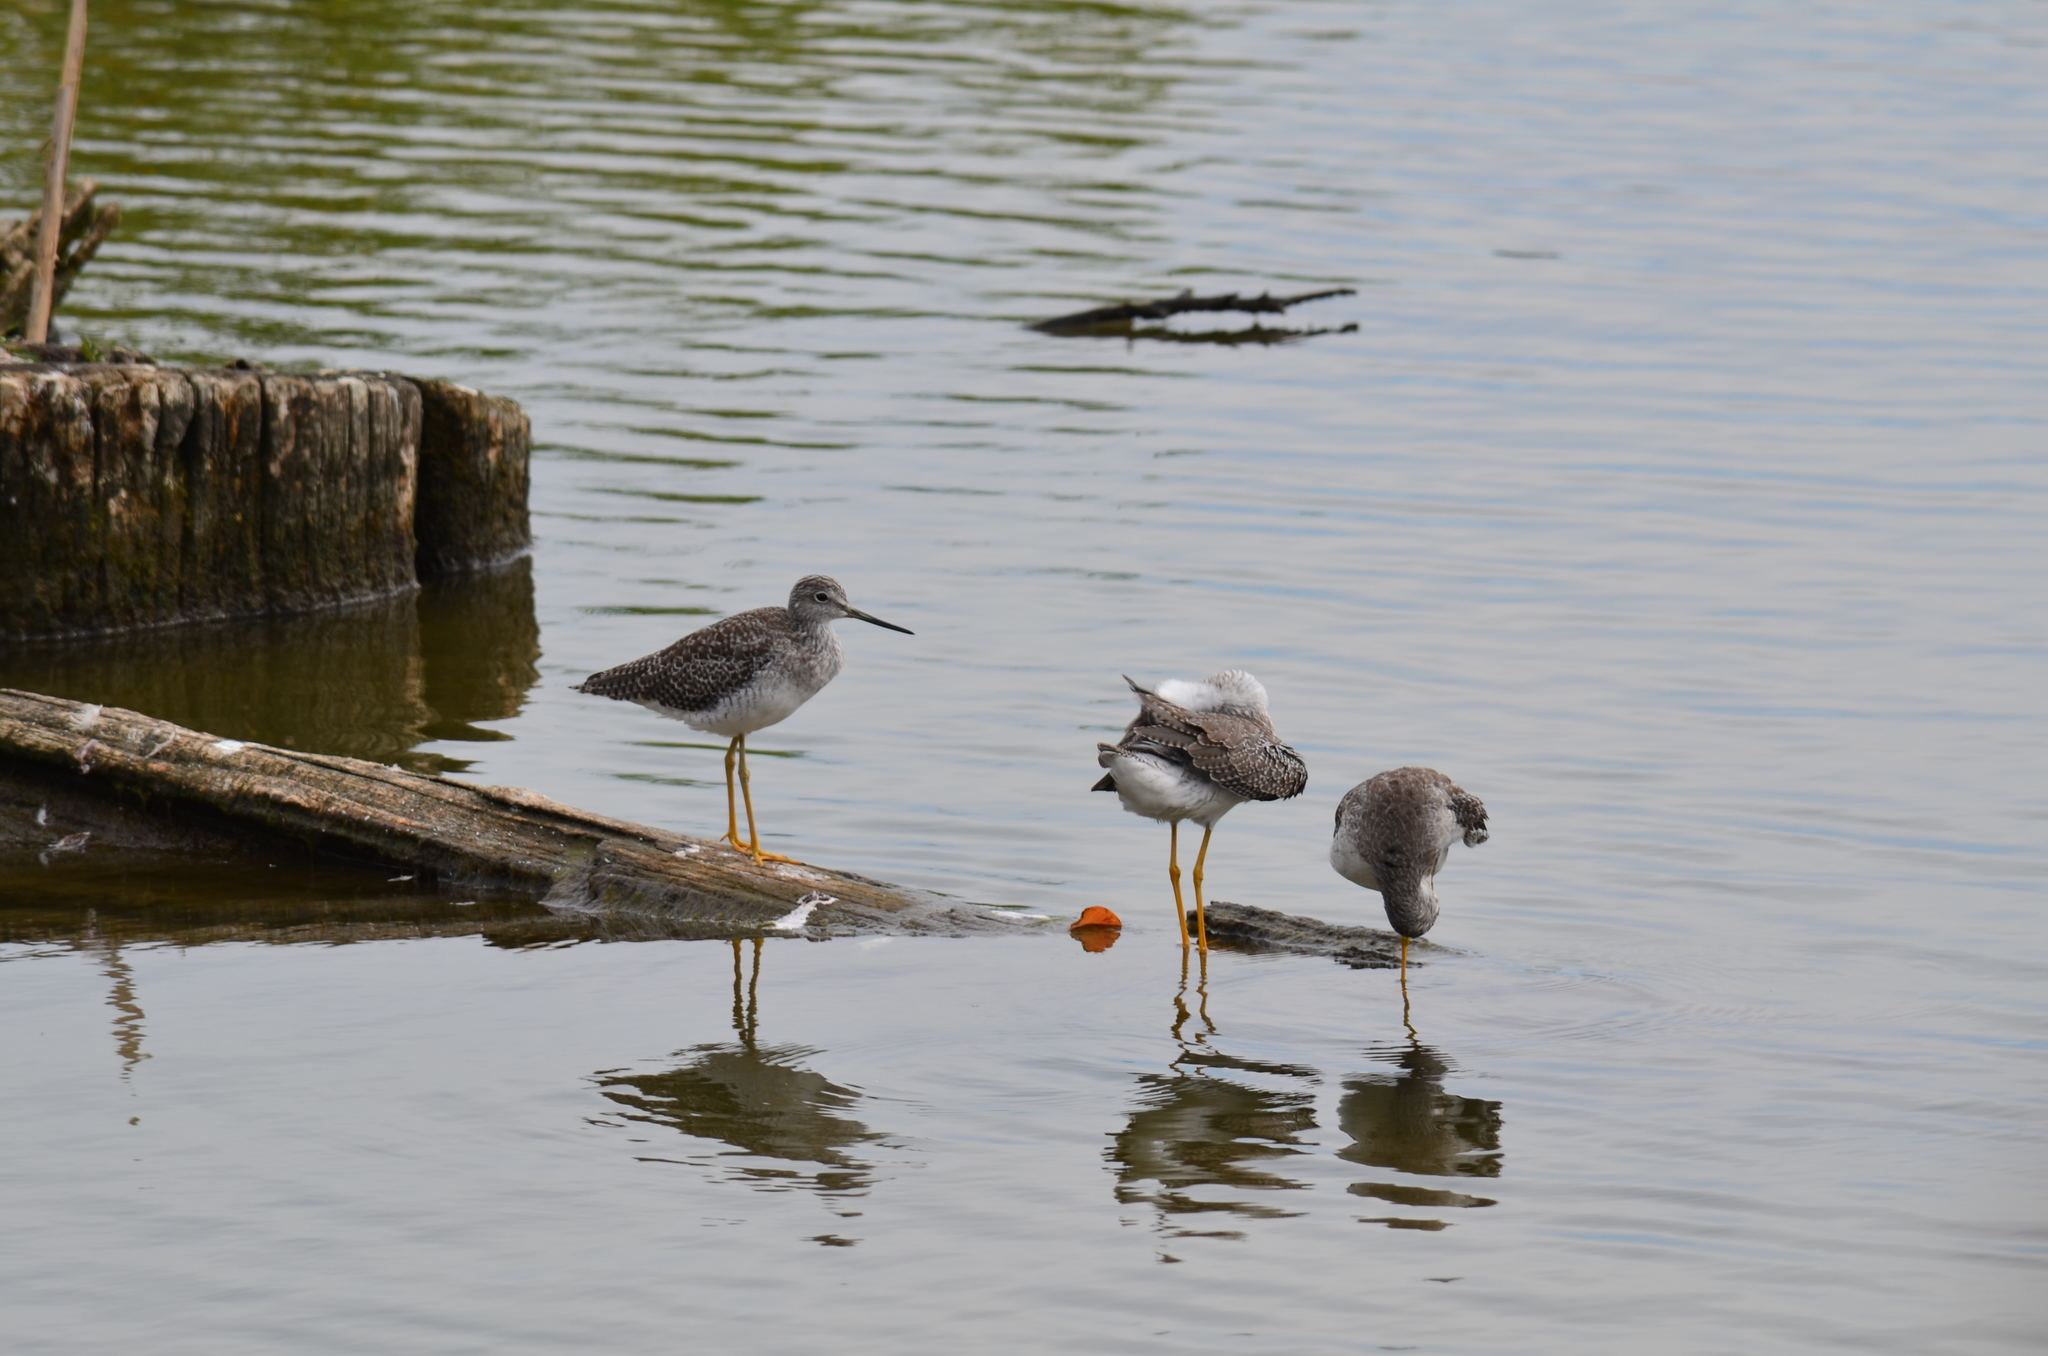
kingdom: Animalia
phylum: Chordata
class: Aves
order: Charadriiformes
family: Scolopacidae
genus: Tringa
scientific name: Tringa flavipes
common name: Lesser yellowlegs
